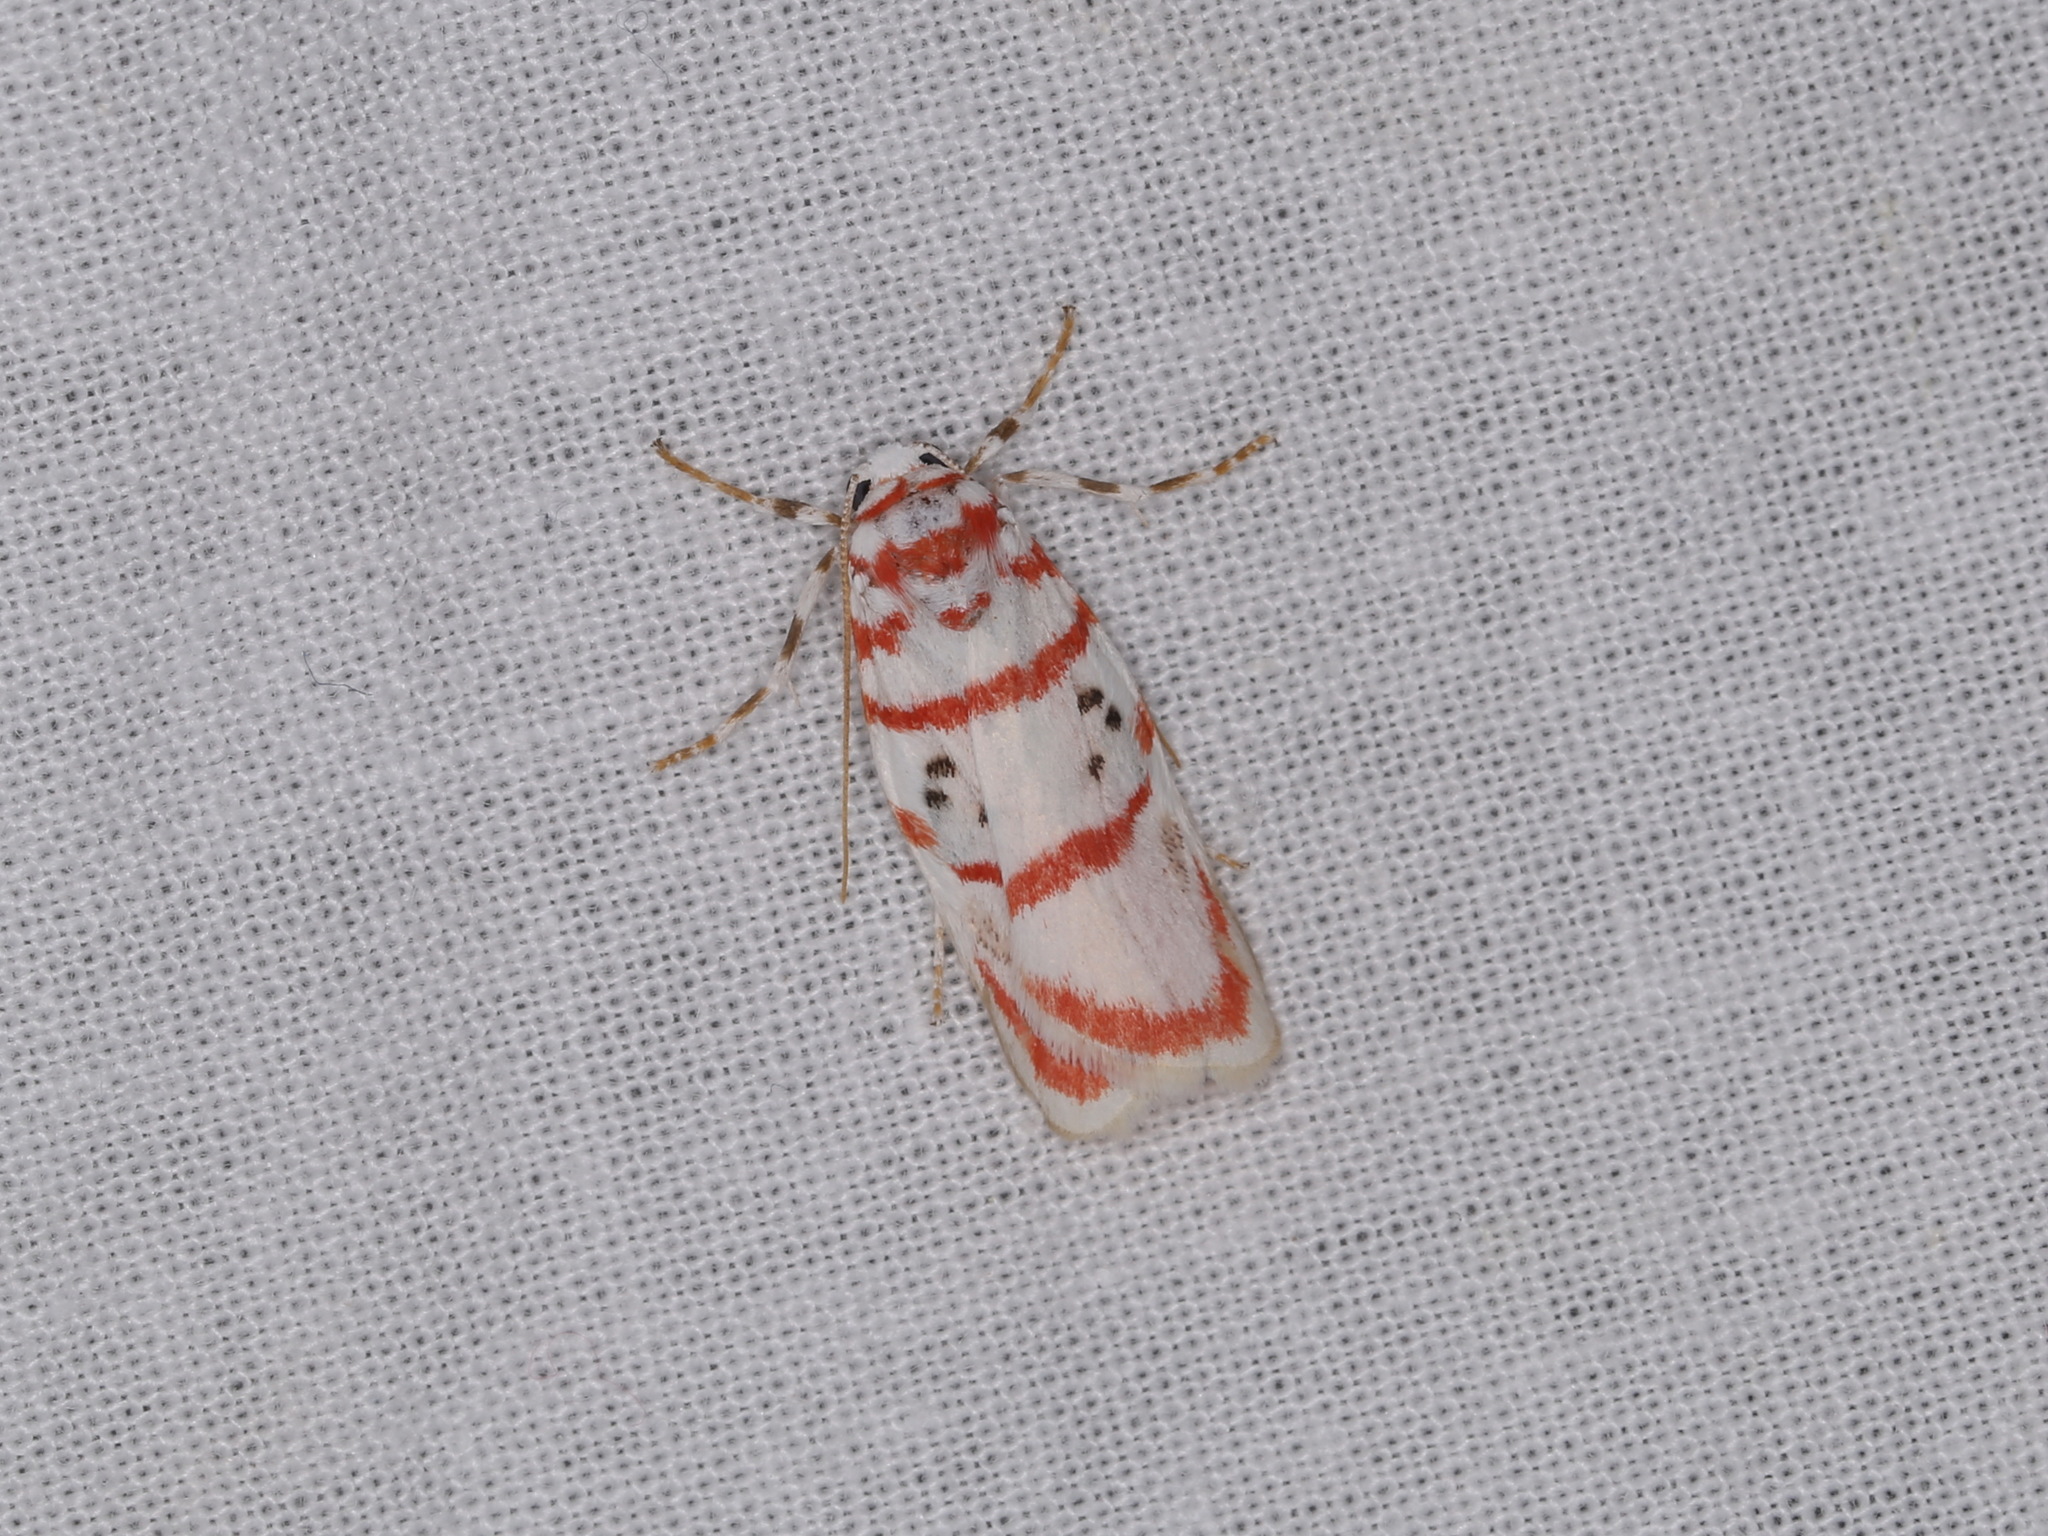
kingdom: Animalia
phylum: Arthropoda
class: Insecta
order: Lepidoptera
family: Erebidae
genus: Cyana
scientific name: Cyana obliquilineata
